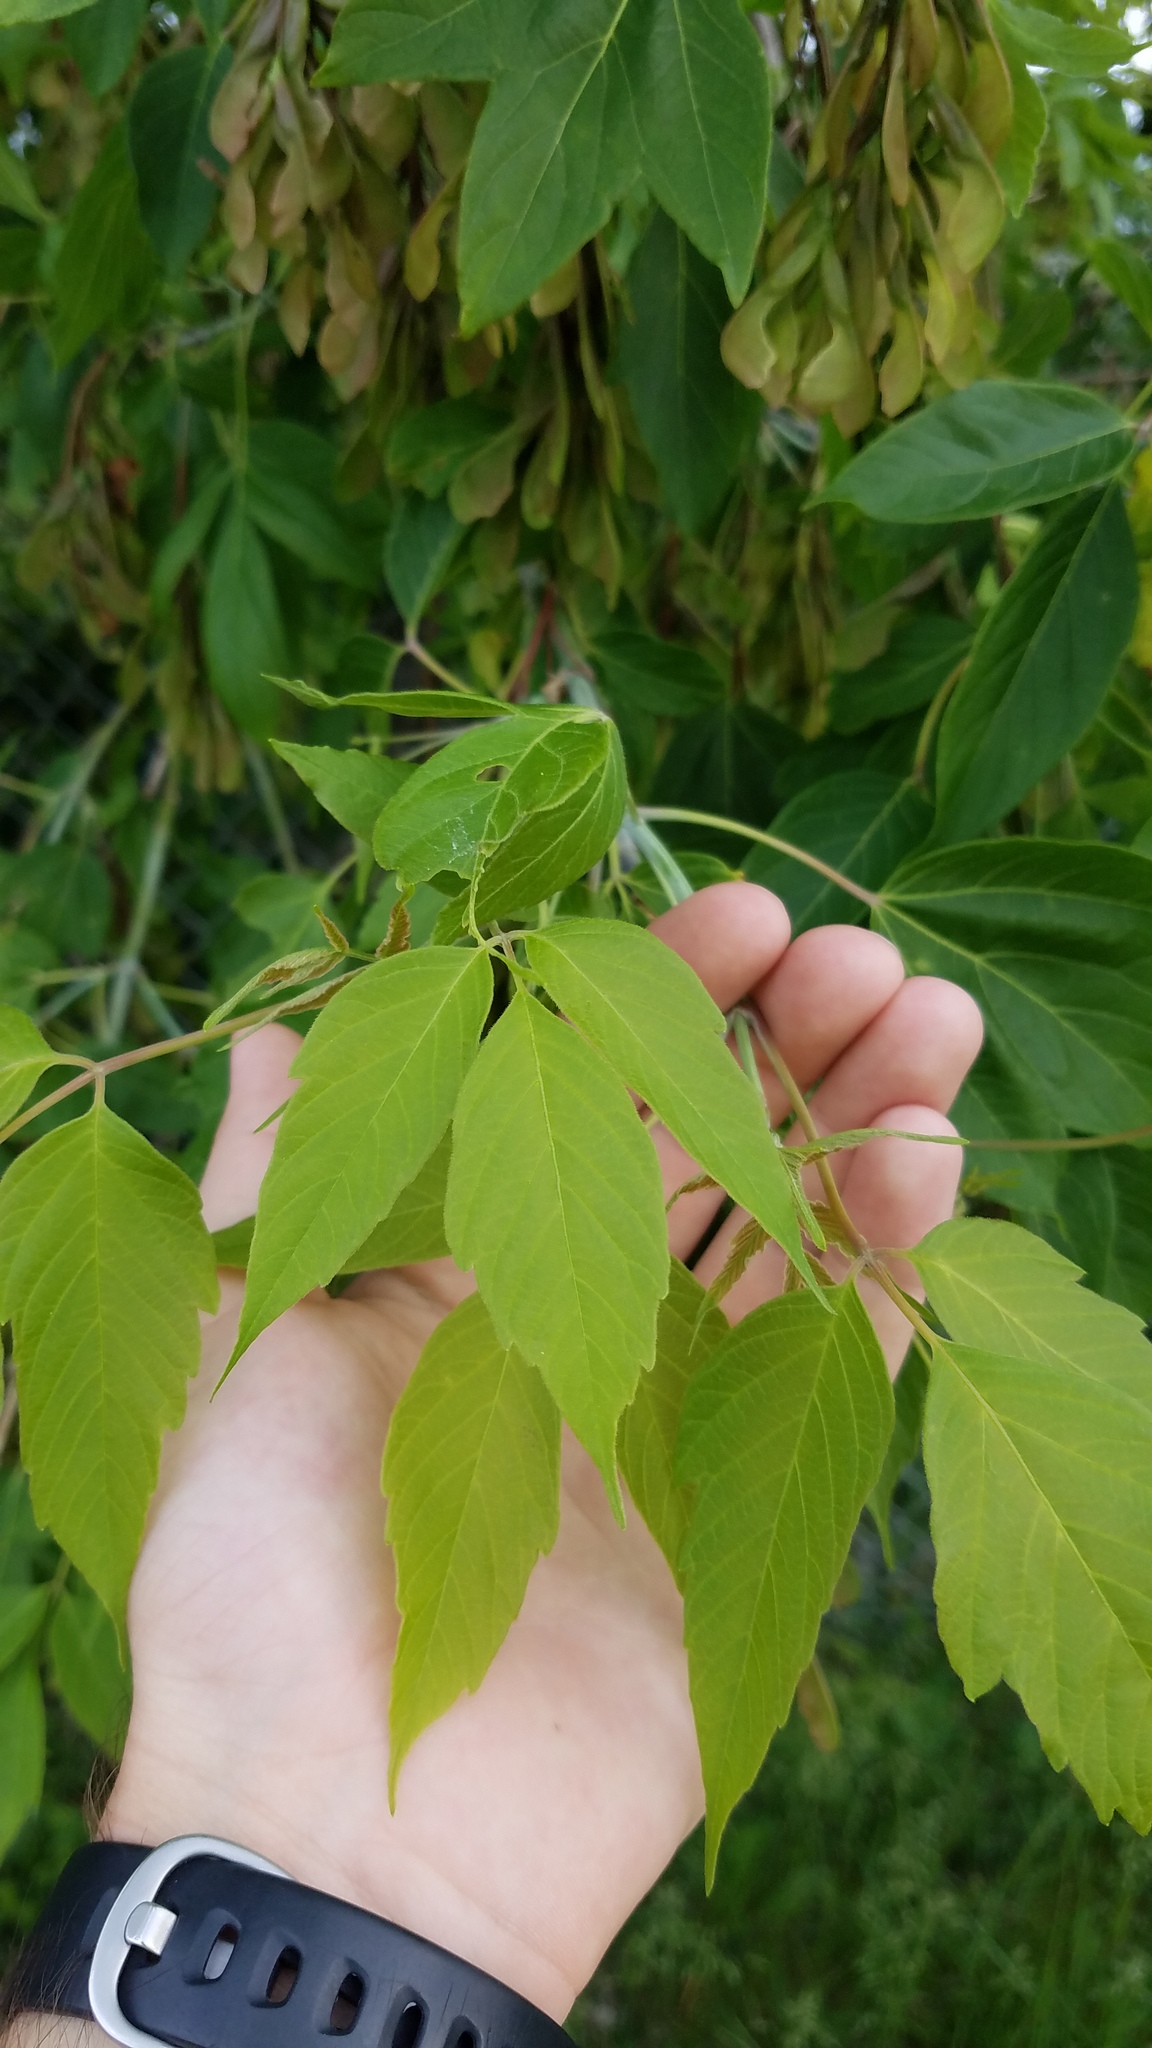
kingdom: Plantae
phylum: Tracheophyta
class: Magnoliopsida
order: Sapindales
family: Sapindaceae
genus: Acer
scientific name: Acer negundo
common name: Ashleaf maple
